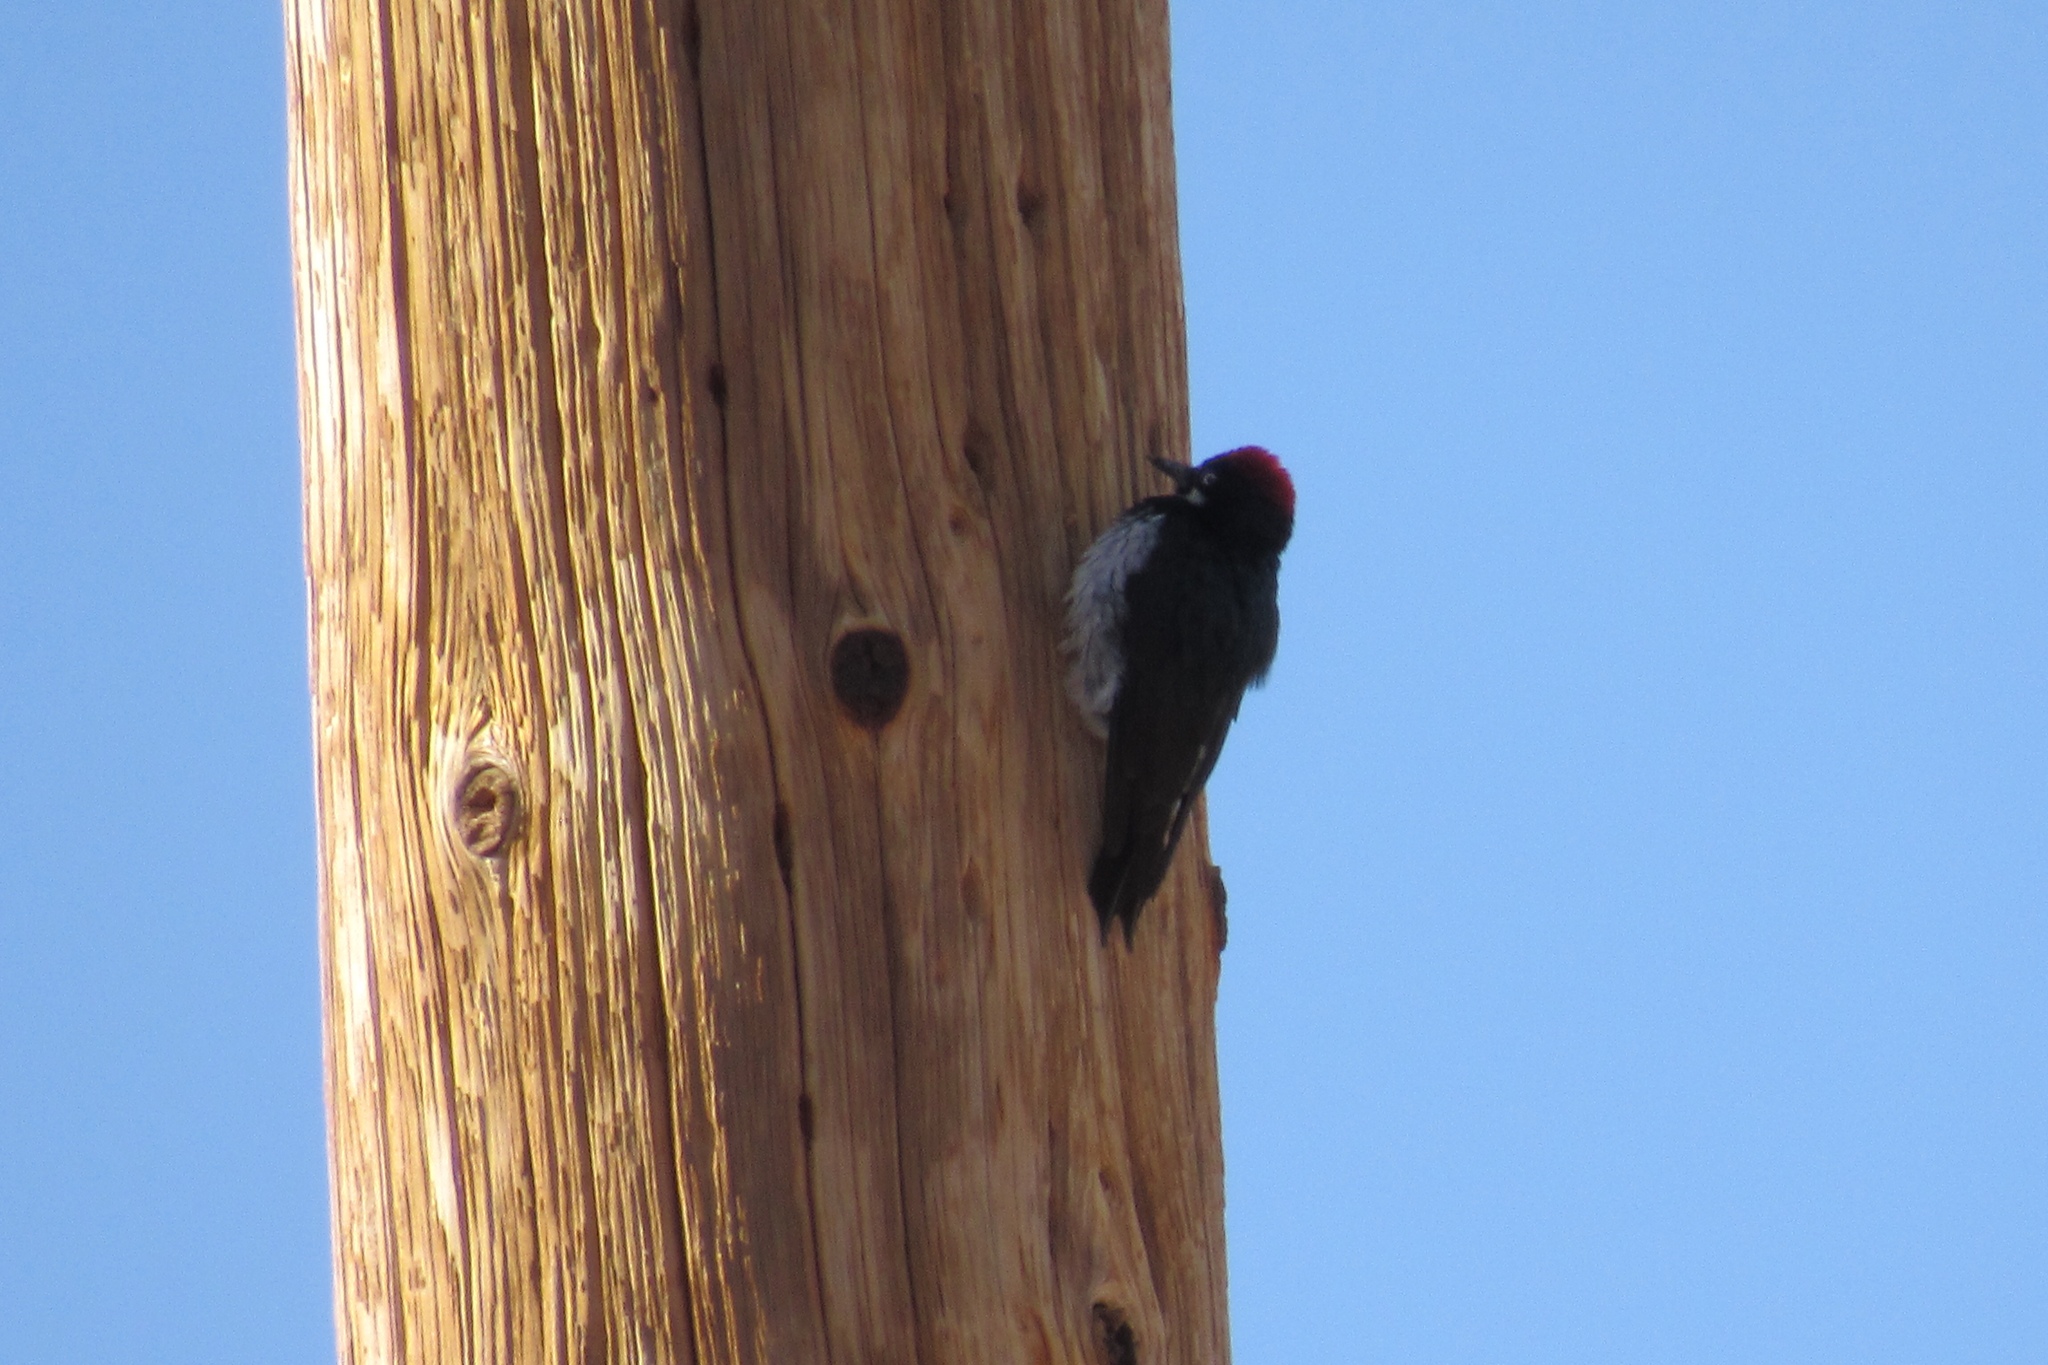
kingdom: Animalia
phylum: Chordata
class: Aves
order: Piciformes
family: Picidae
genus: Melanerpes
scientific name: Melanerpes formicivorus
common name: Acorn woodpecker
